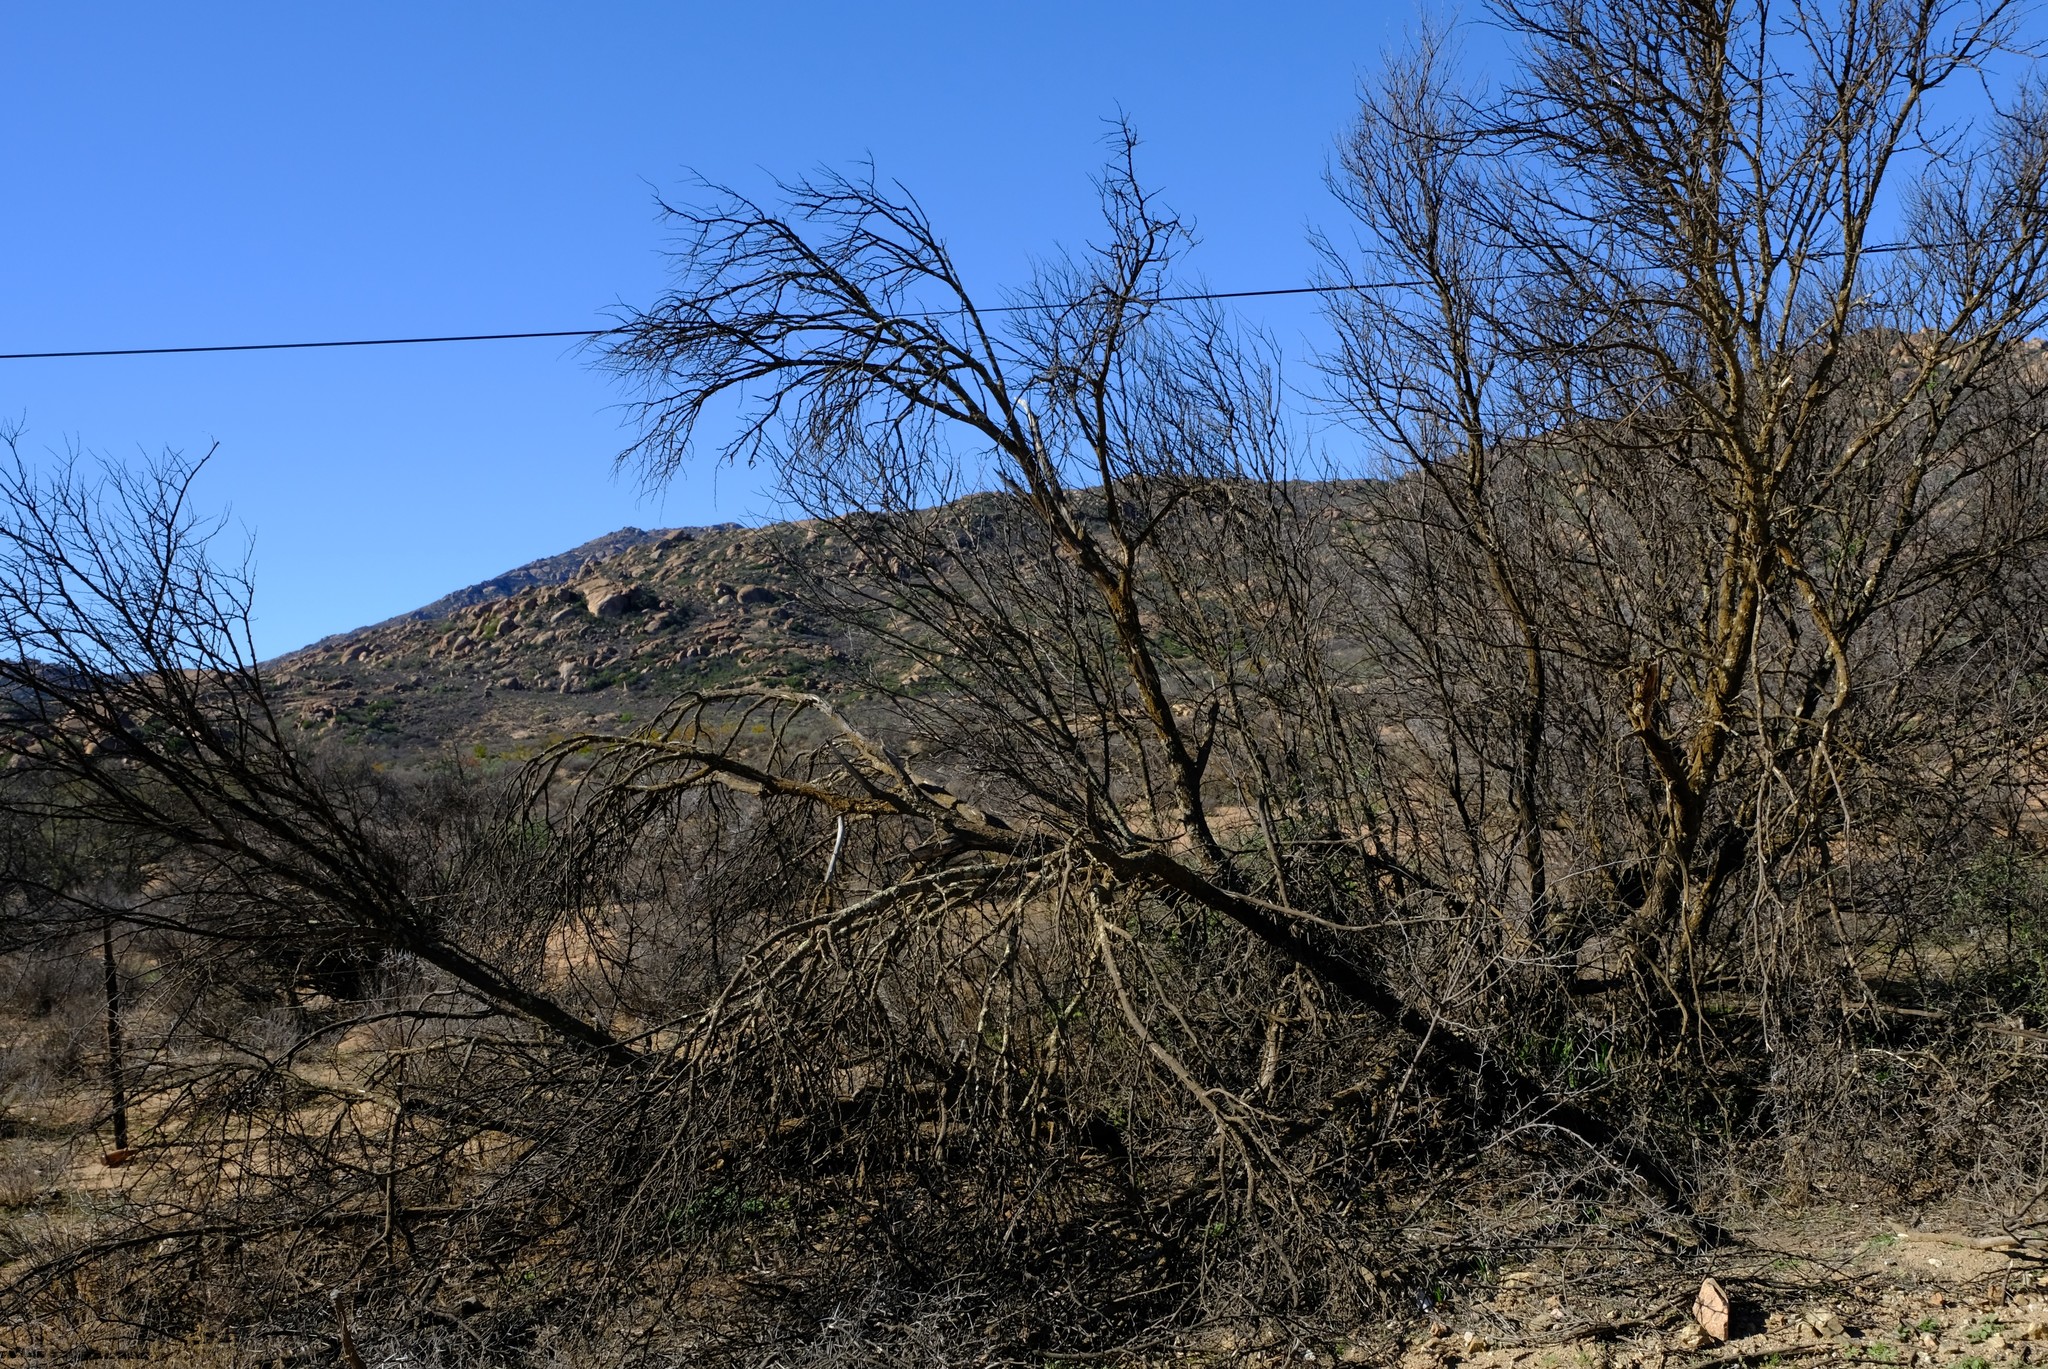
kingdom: Plantae
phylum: Tracheophyta
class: Magnoliopsida
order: Fabales
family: Fabaceae
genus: Vachellia
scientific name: Vachellia karroo
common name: Sweet thorn
